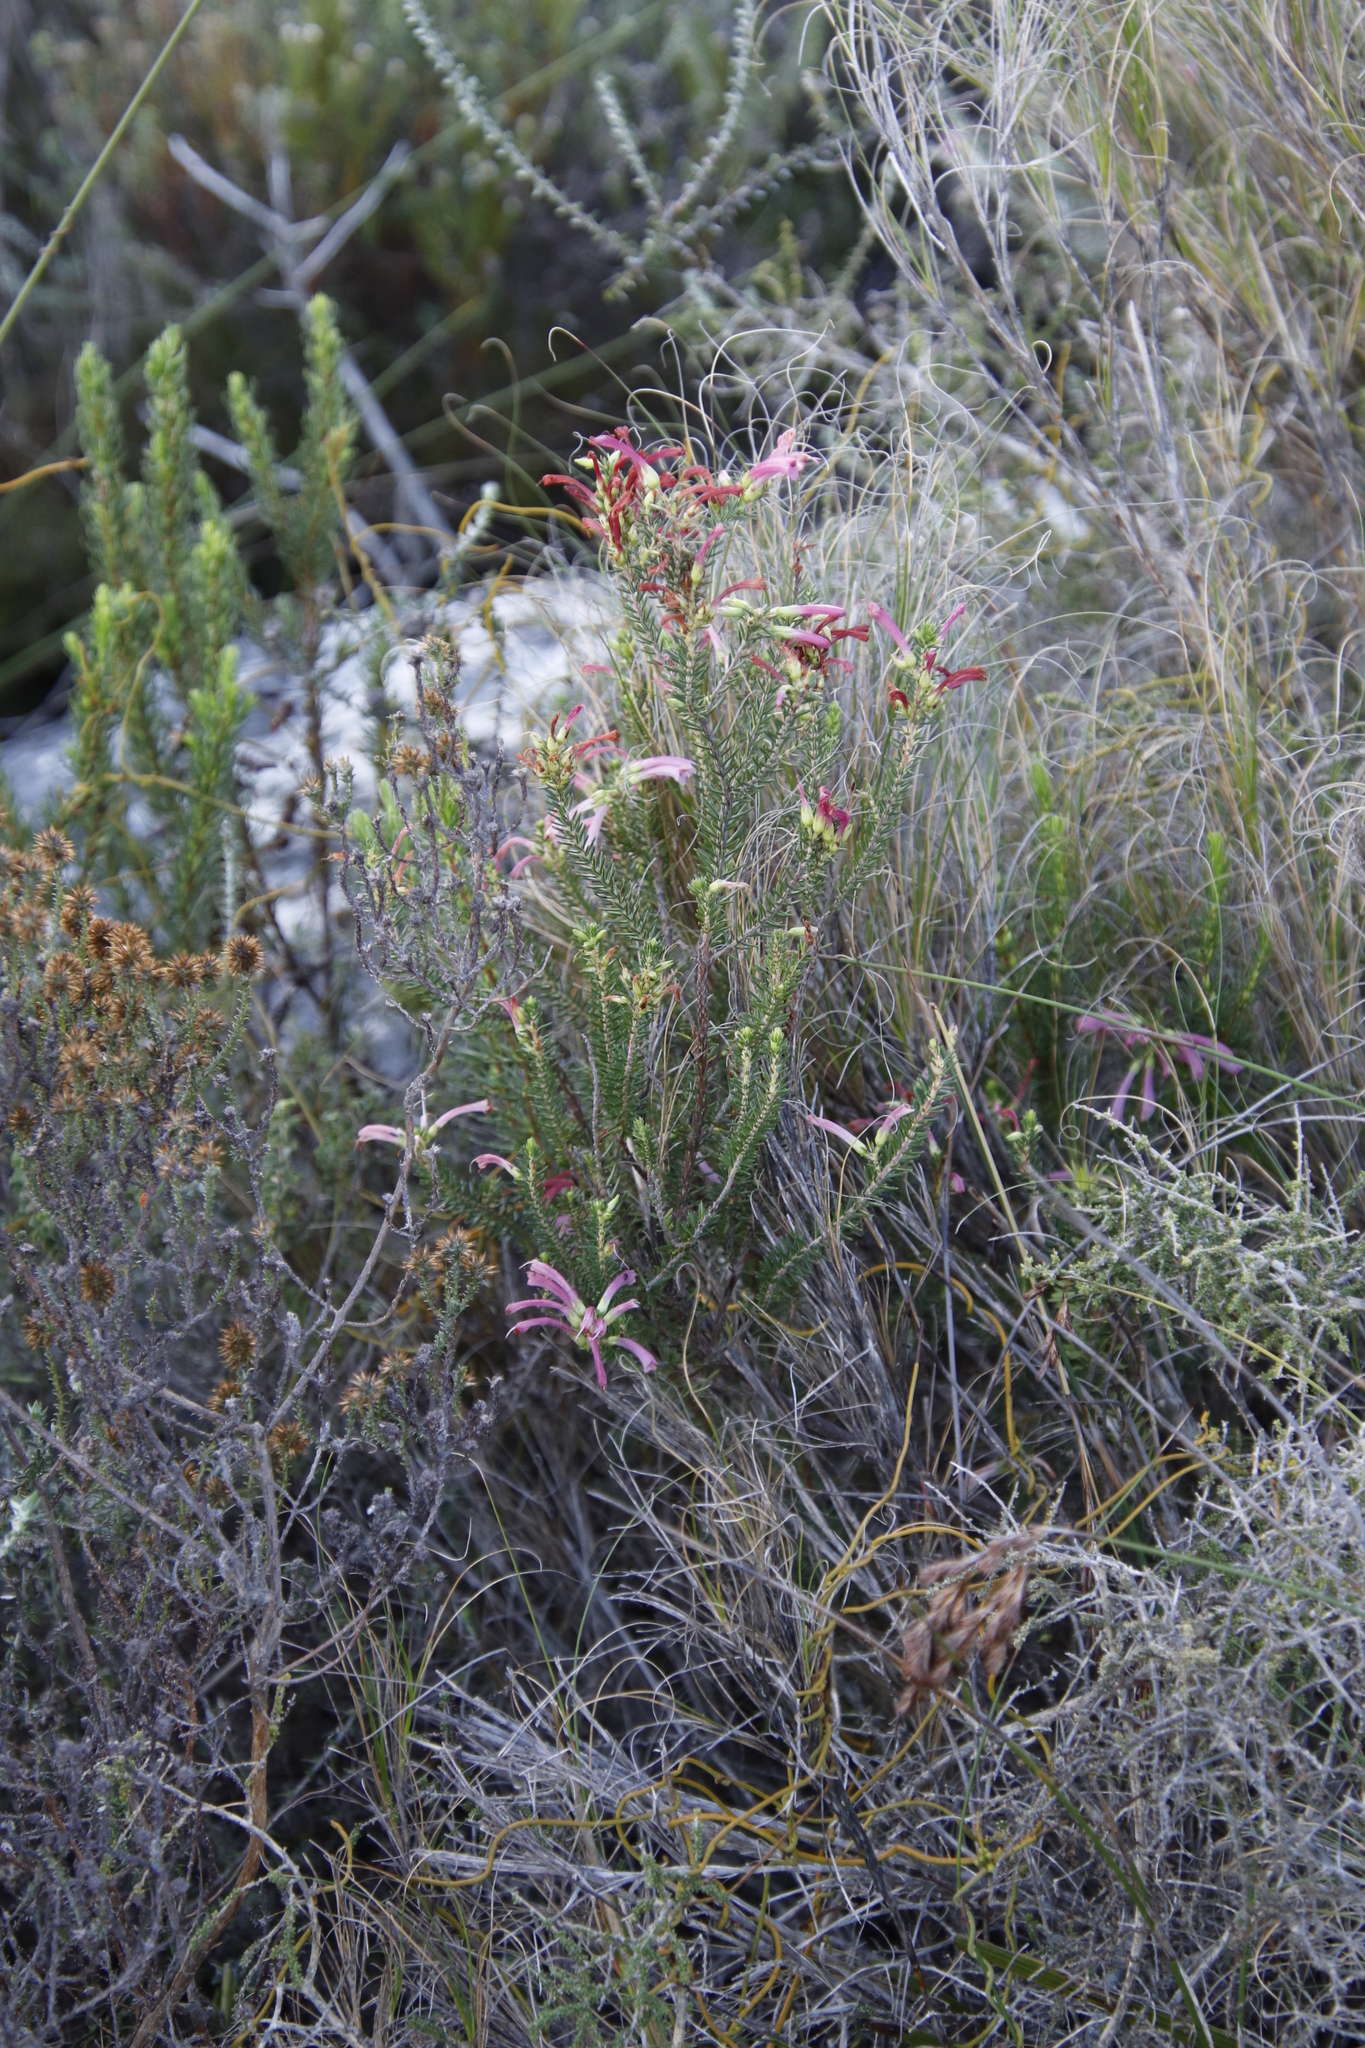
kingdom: Plantae
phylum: Tracheophyta
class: Magnoliopsida
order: Ericales
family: Ericaceae
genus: Erica
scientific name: Erica abietina
